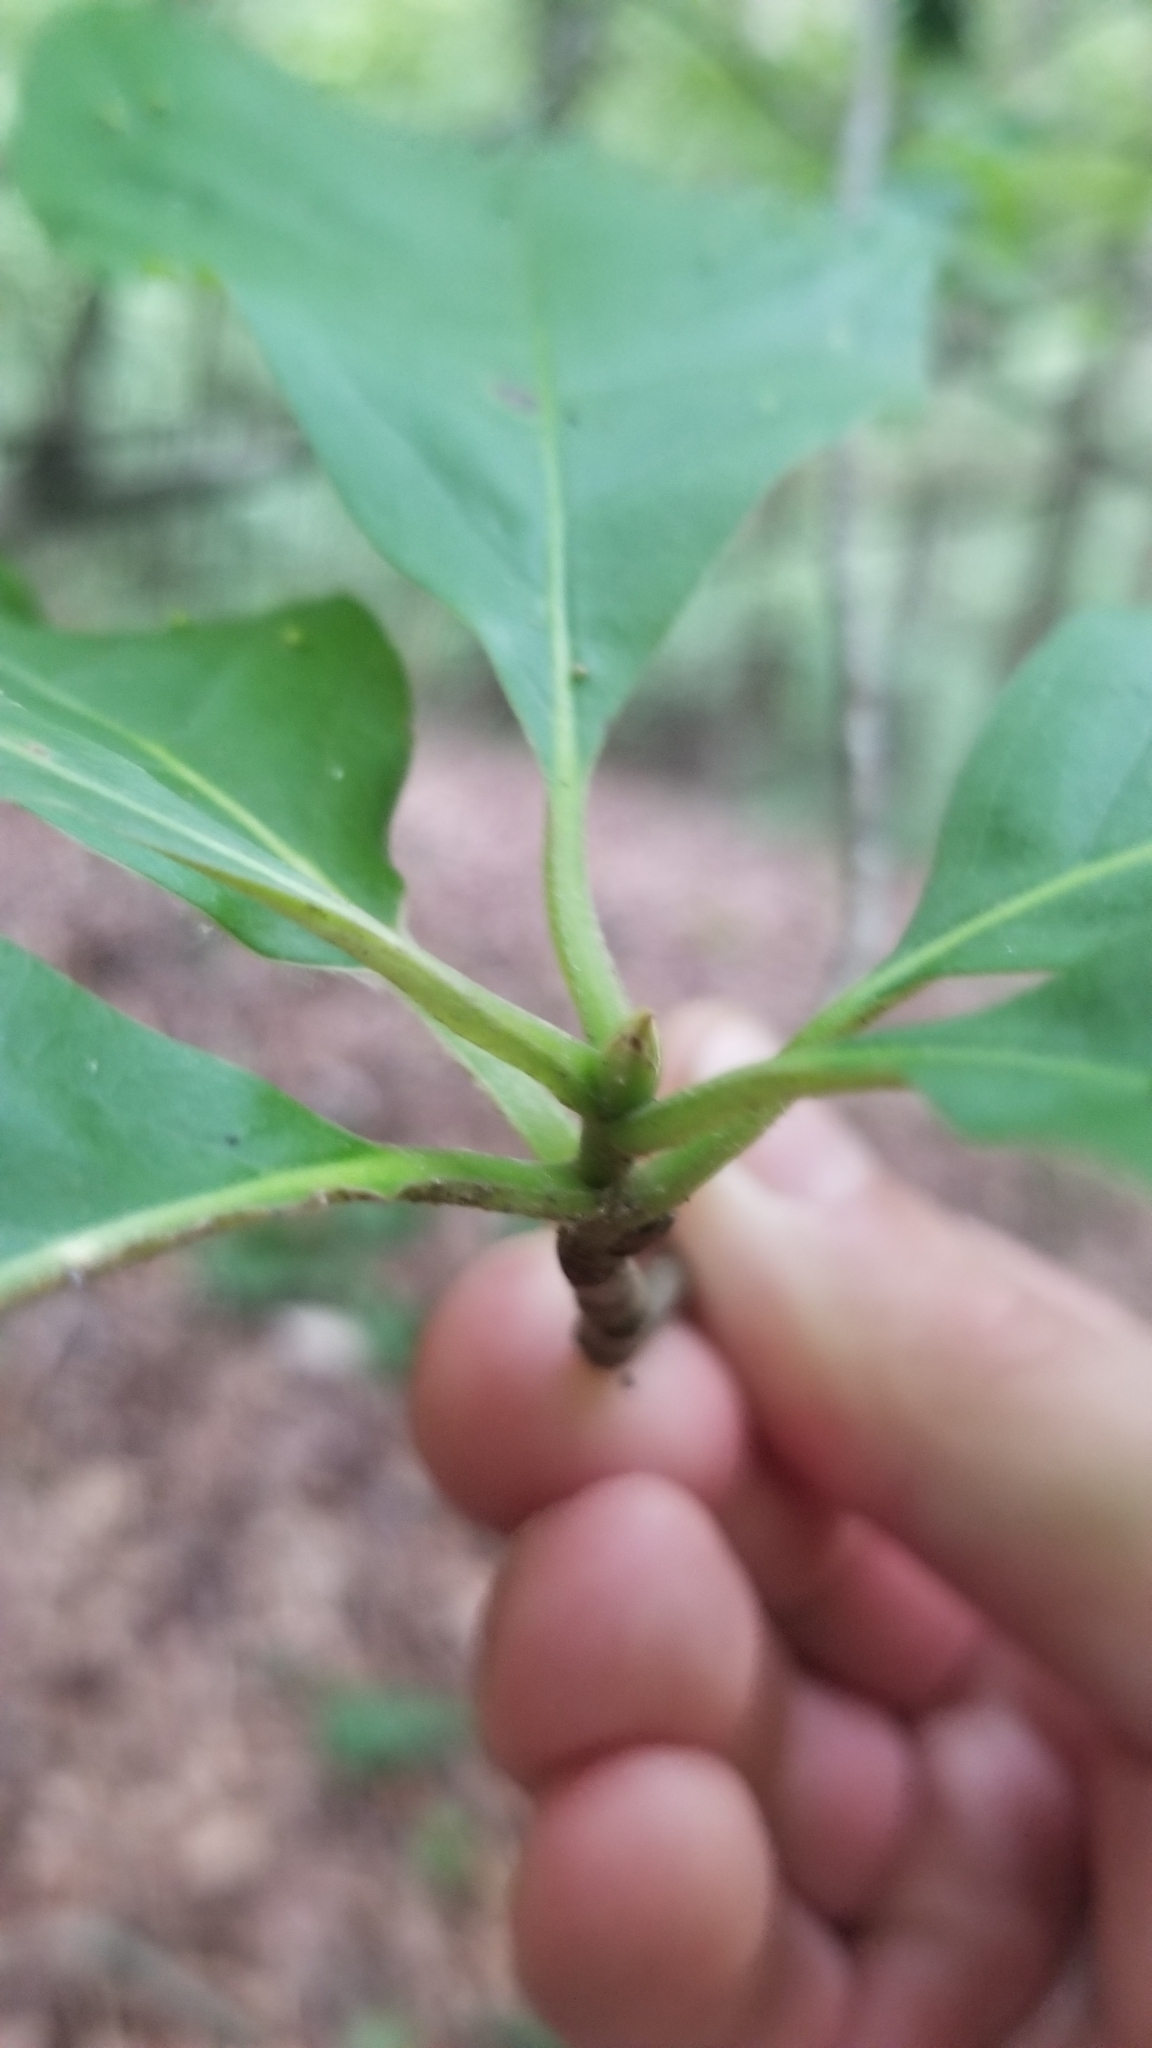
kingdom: Plantae
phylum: Tracheophyta
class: Magnoliopsida
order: Cornales
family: Nyssaceae
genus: Nyssa
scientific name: Nyssa sylvatica
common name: Black tupelo
